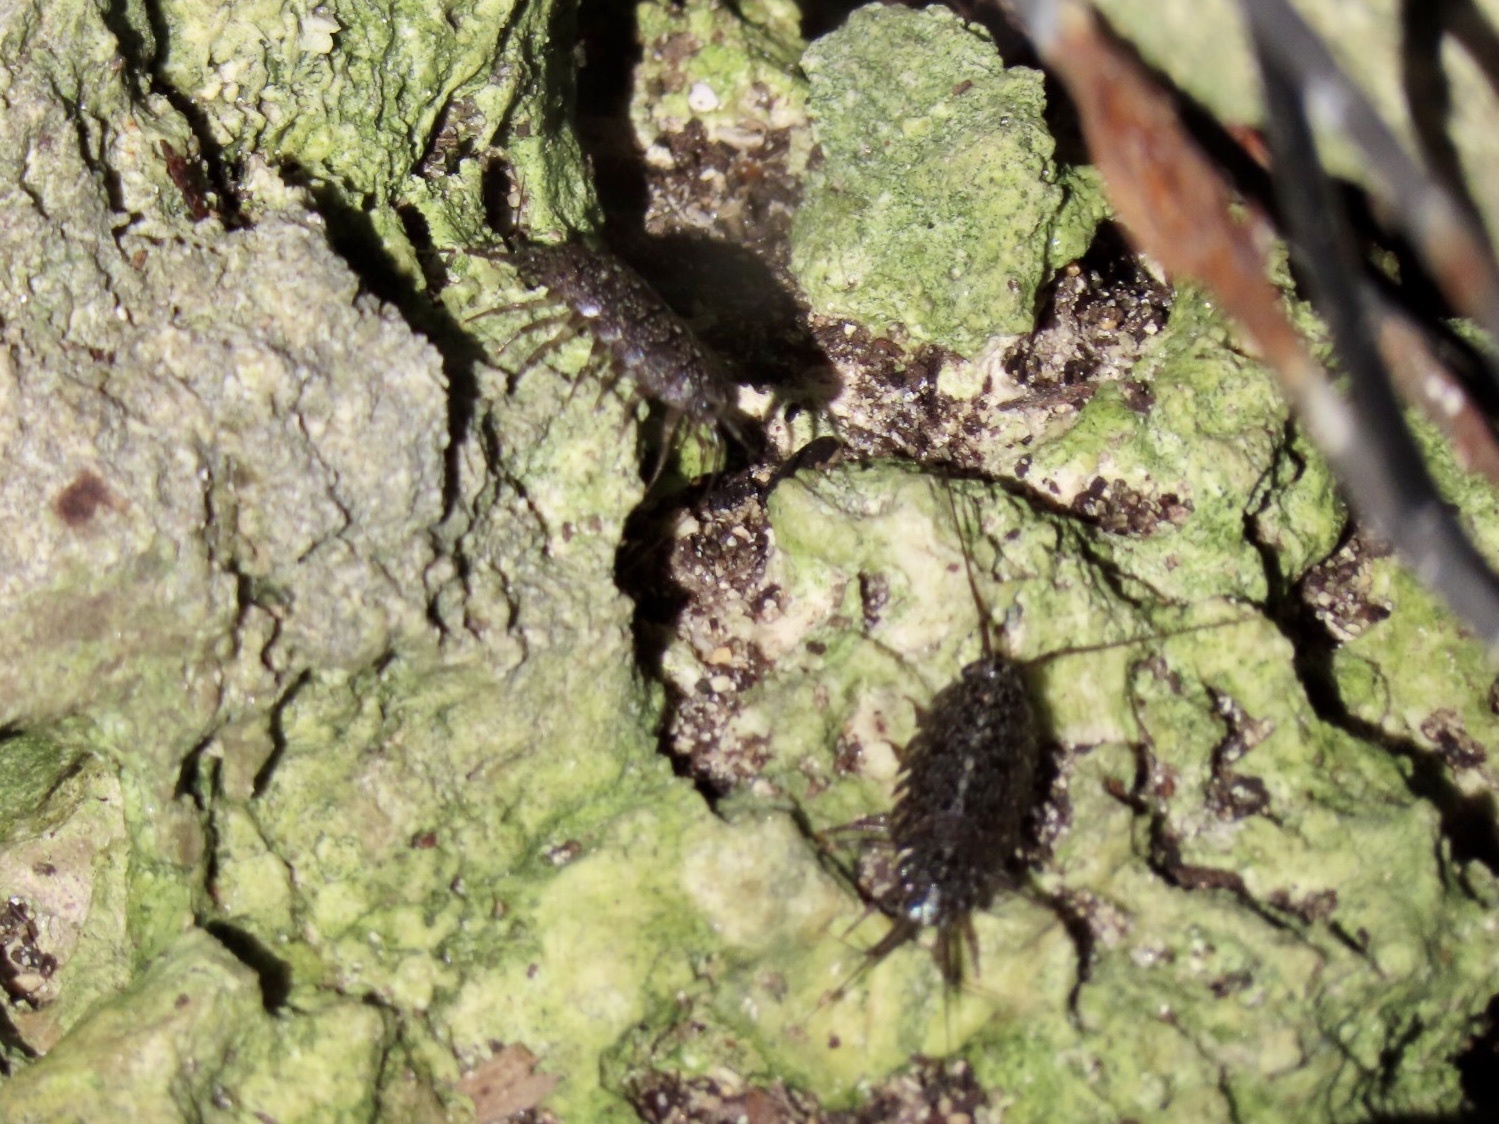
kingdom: Animalia
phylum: Arthropoda
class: Malacostraca
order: Isopoda
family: Ligiidae
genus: Ligia
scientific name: Ligia exotica
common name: Wharf roach
